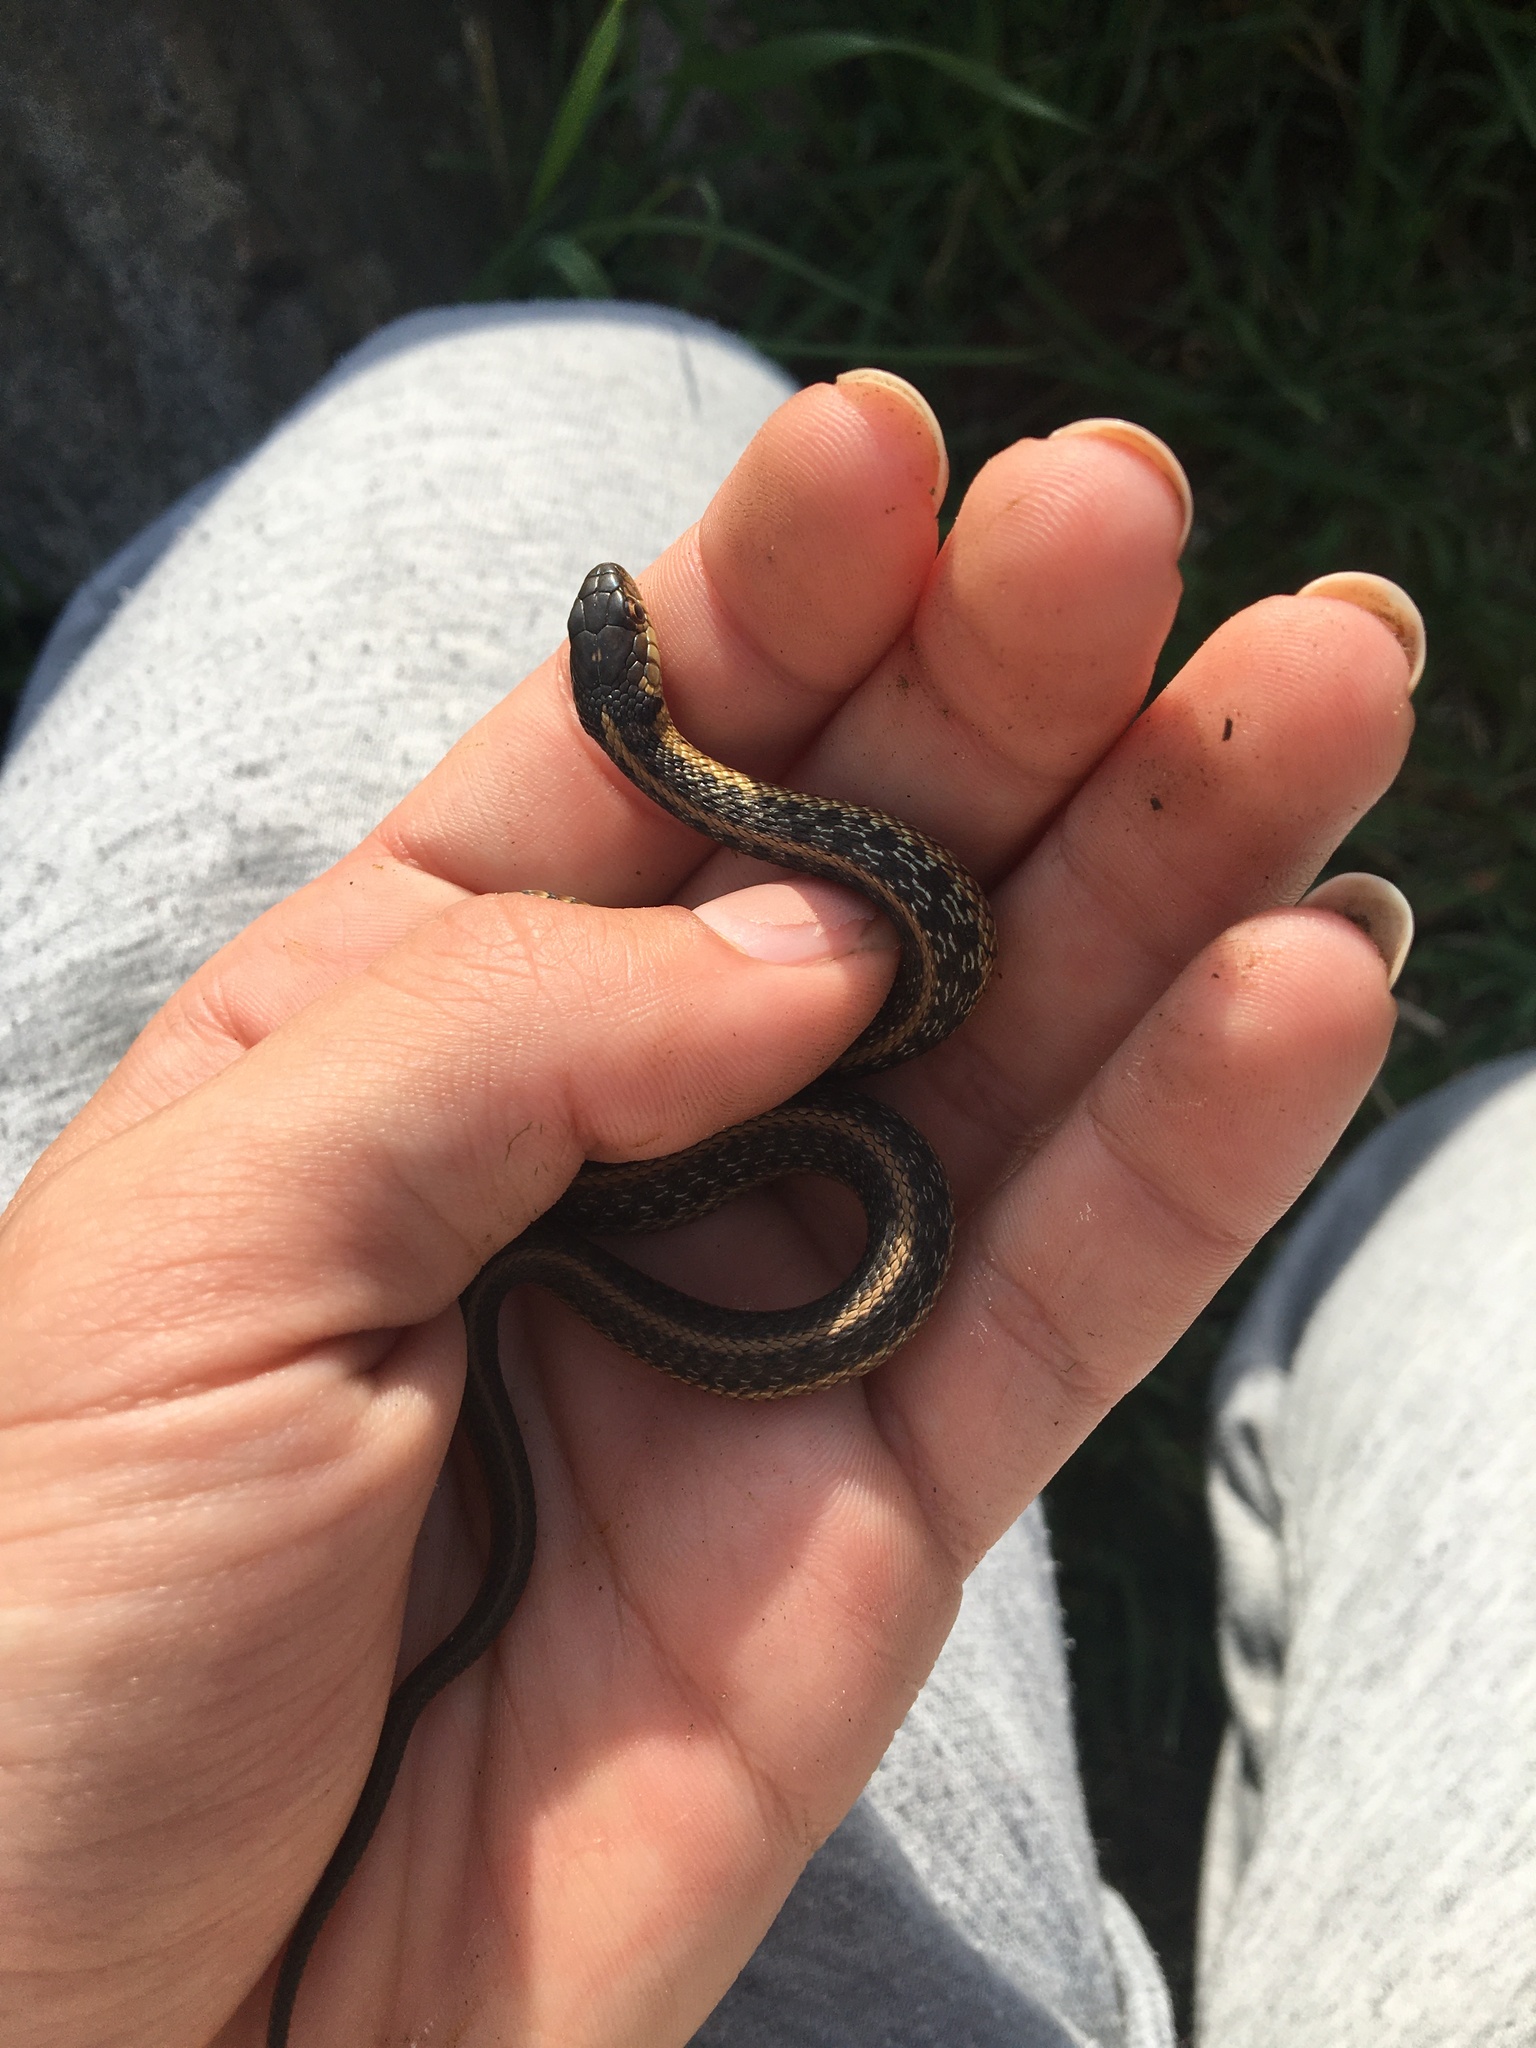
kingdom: Animalia
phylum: Chordata
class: Squamata
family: Colubridae
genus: Thamnophis
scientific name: Thamnophis sirtalis
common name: Common garter snake
